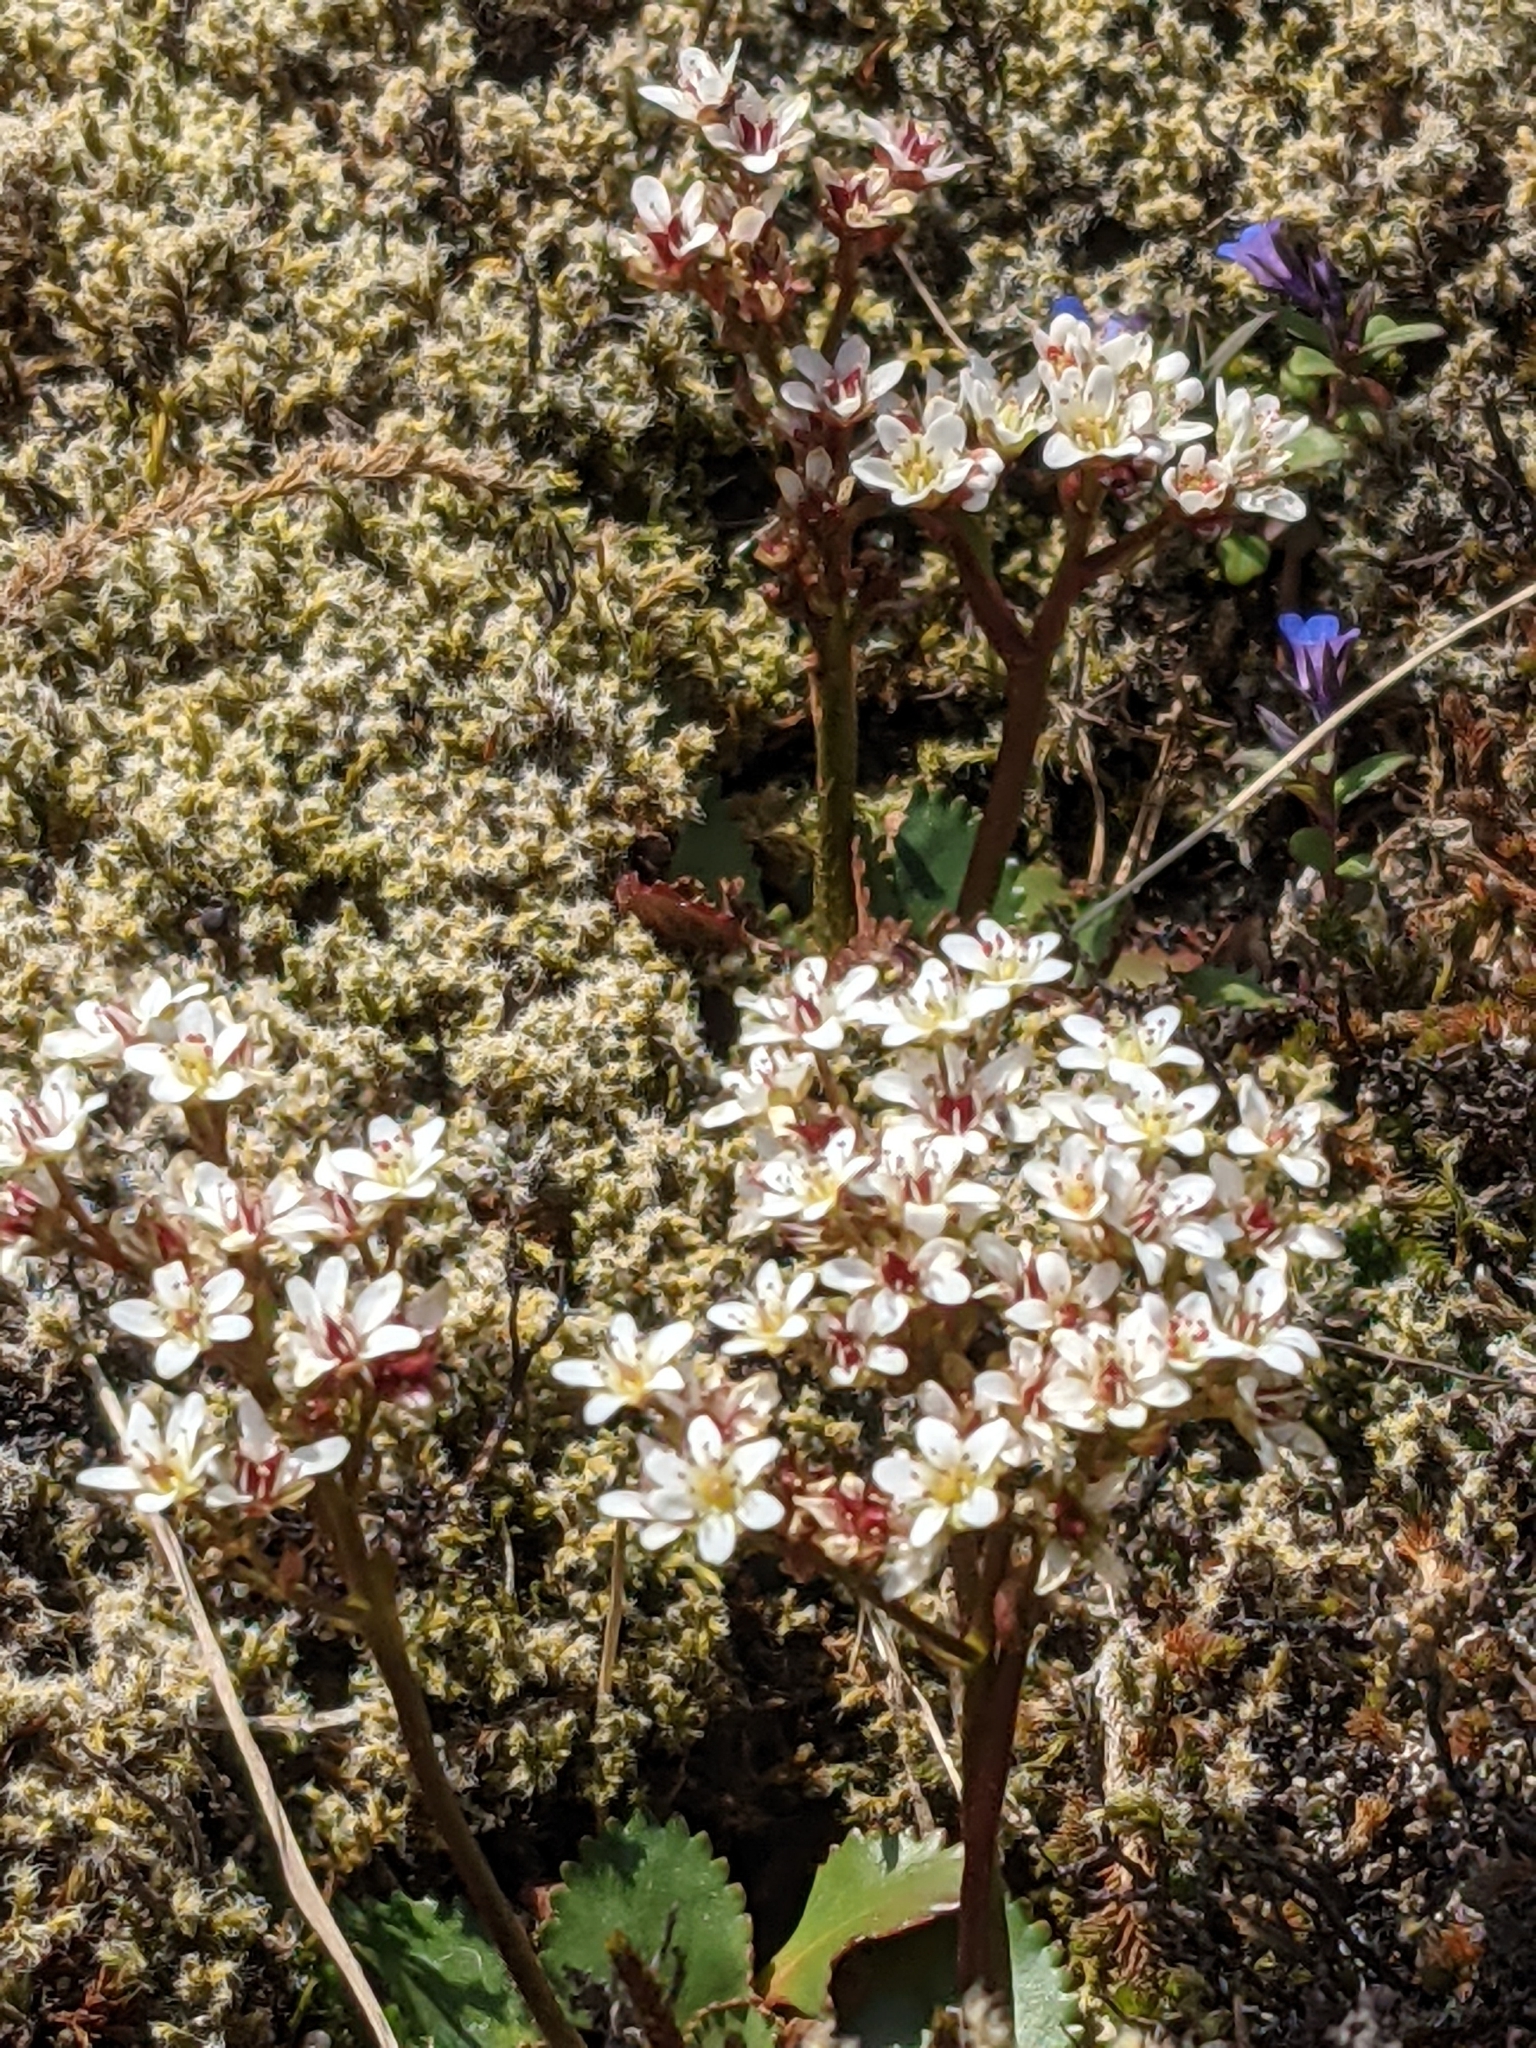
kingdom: Plantae
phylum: Tracheophyta
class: Magnoliopsida
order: Saxifragales
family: Saxifragaceae
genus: Micranthes
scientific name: Micranthes integrifolia
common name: Wholeleaf saxifrage
